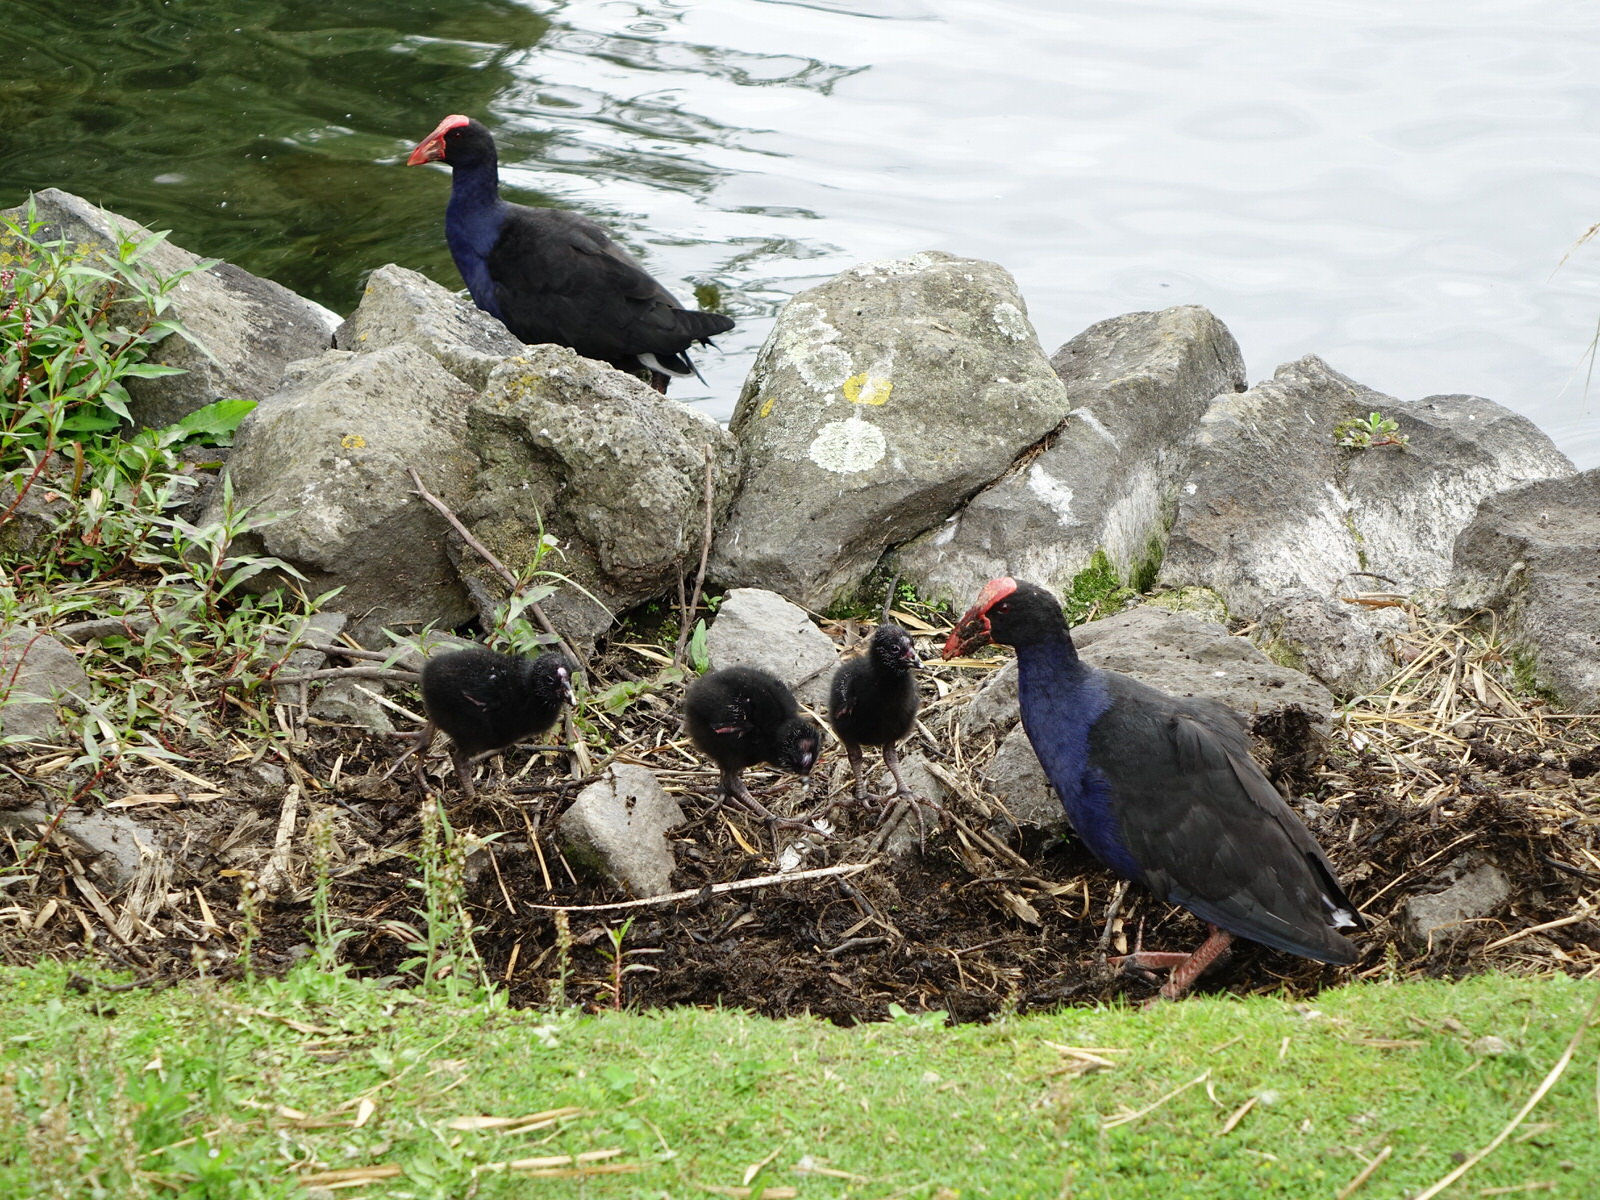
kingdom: Animalia
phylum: Chordata
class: Aves
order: Gruiformes
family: Rallidae
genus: Porphyrio
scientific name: Porphyrio melanotus
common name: Australasian swamphen
